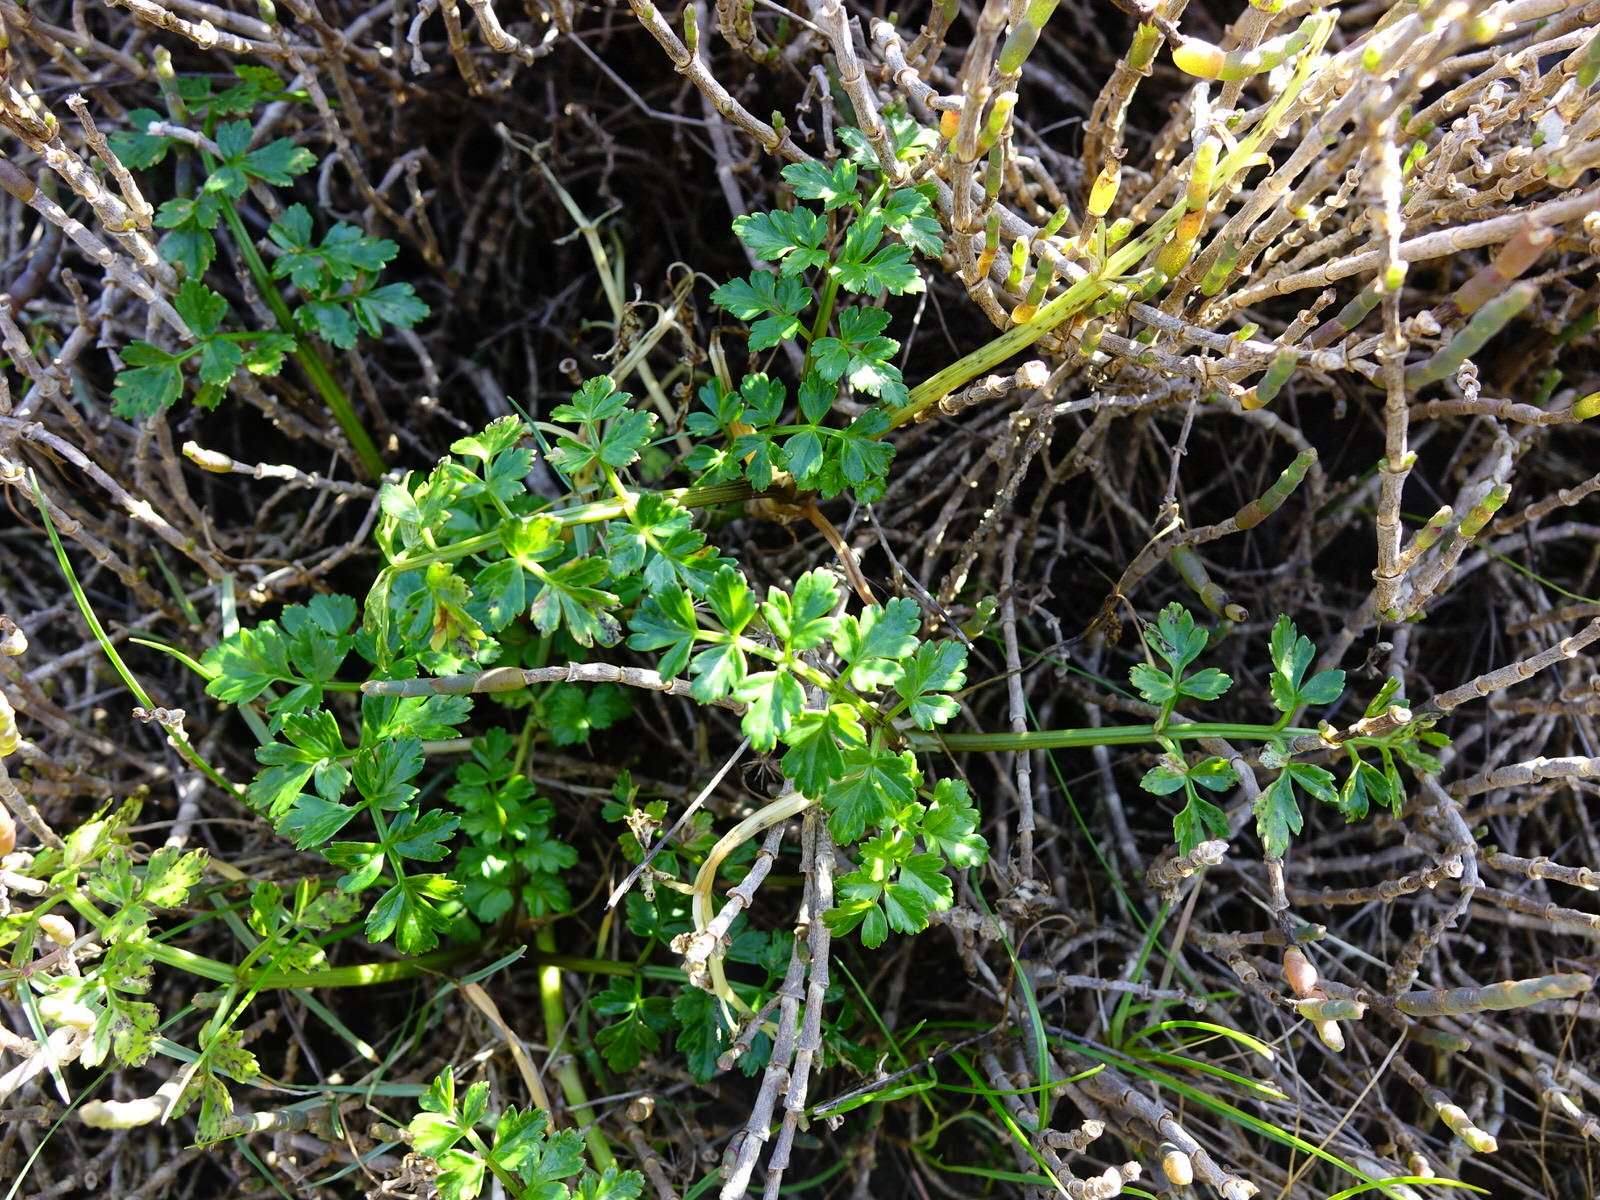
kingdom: Plantae
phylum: Tracheophyta
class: Magnoliopsida
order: Apiales
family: Apiaceae
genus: Apium
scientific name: Apium prostratum
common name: Prostrate marshwort
